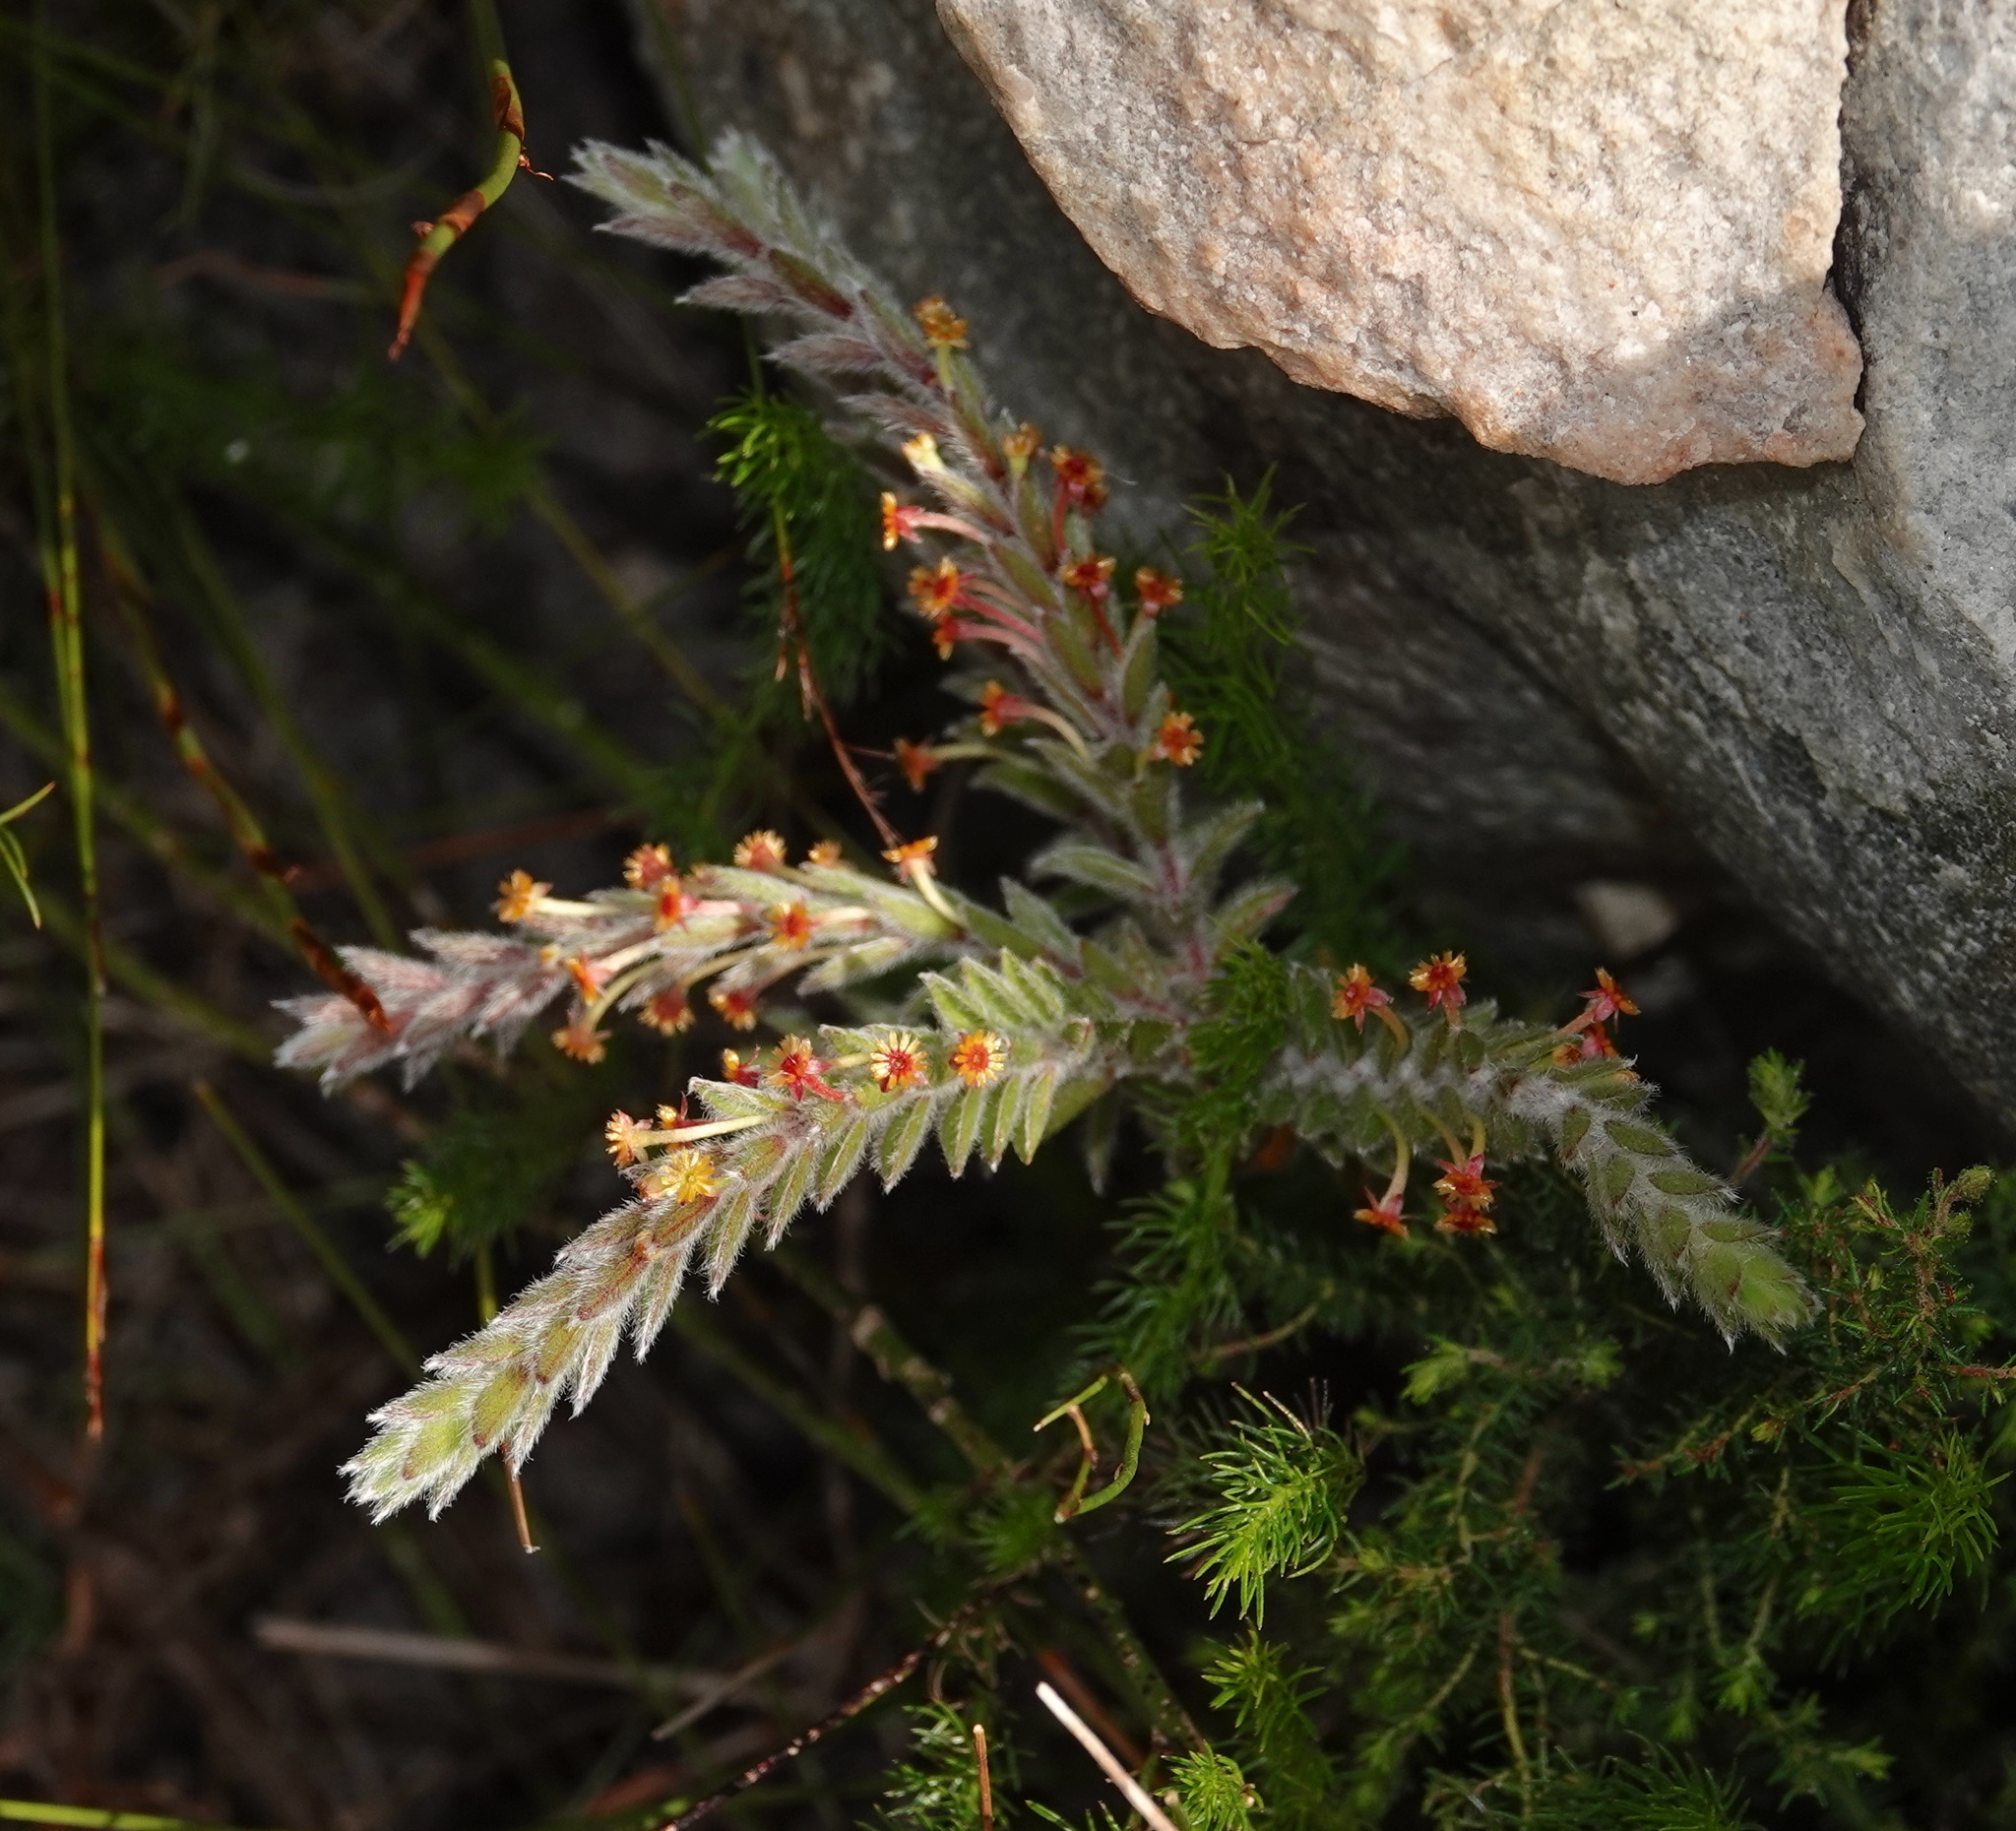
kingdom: Plantae
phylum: Tracheophyta
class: Magnoliopsida
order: Malvales
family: Thymelaeaceae
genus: Struthiola
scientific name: Struthiola tomentosa
